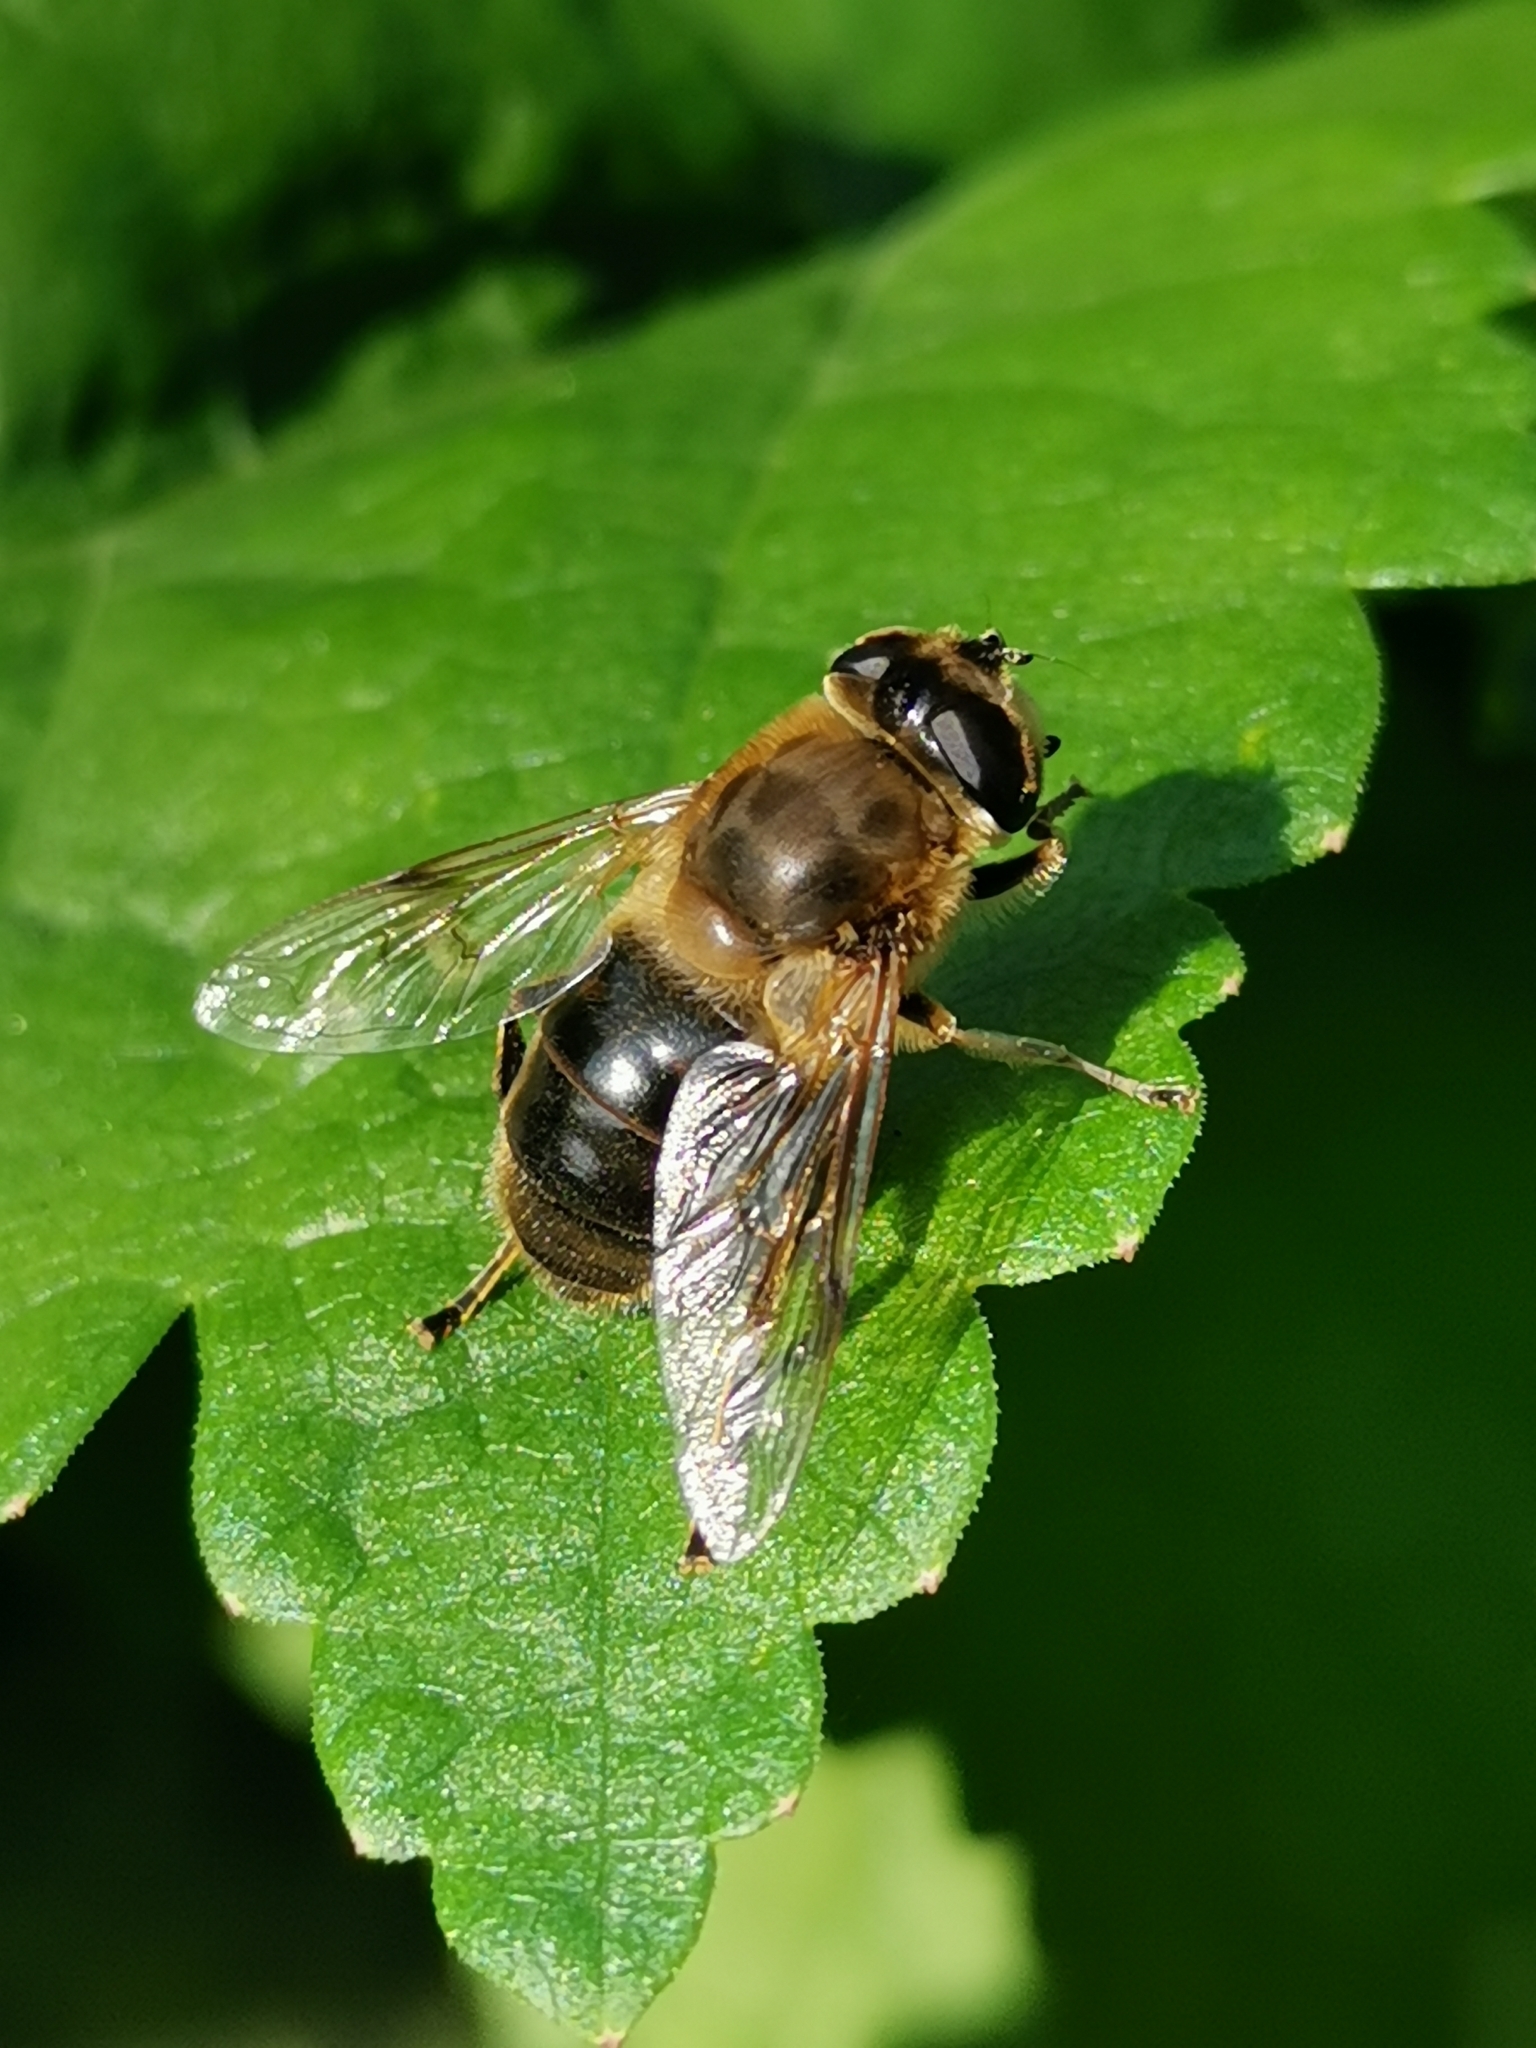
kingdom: Animalia
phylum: Arthropoda
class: Insecta
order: Diptera
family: Syrphidae
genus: Eristalis
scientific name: Eristalis tenax
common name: Drone fly
